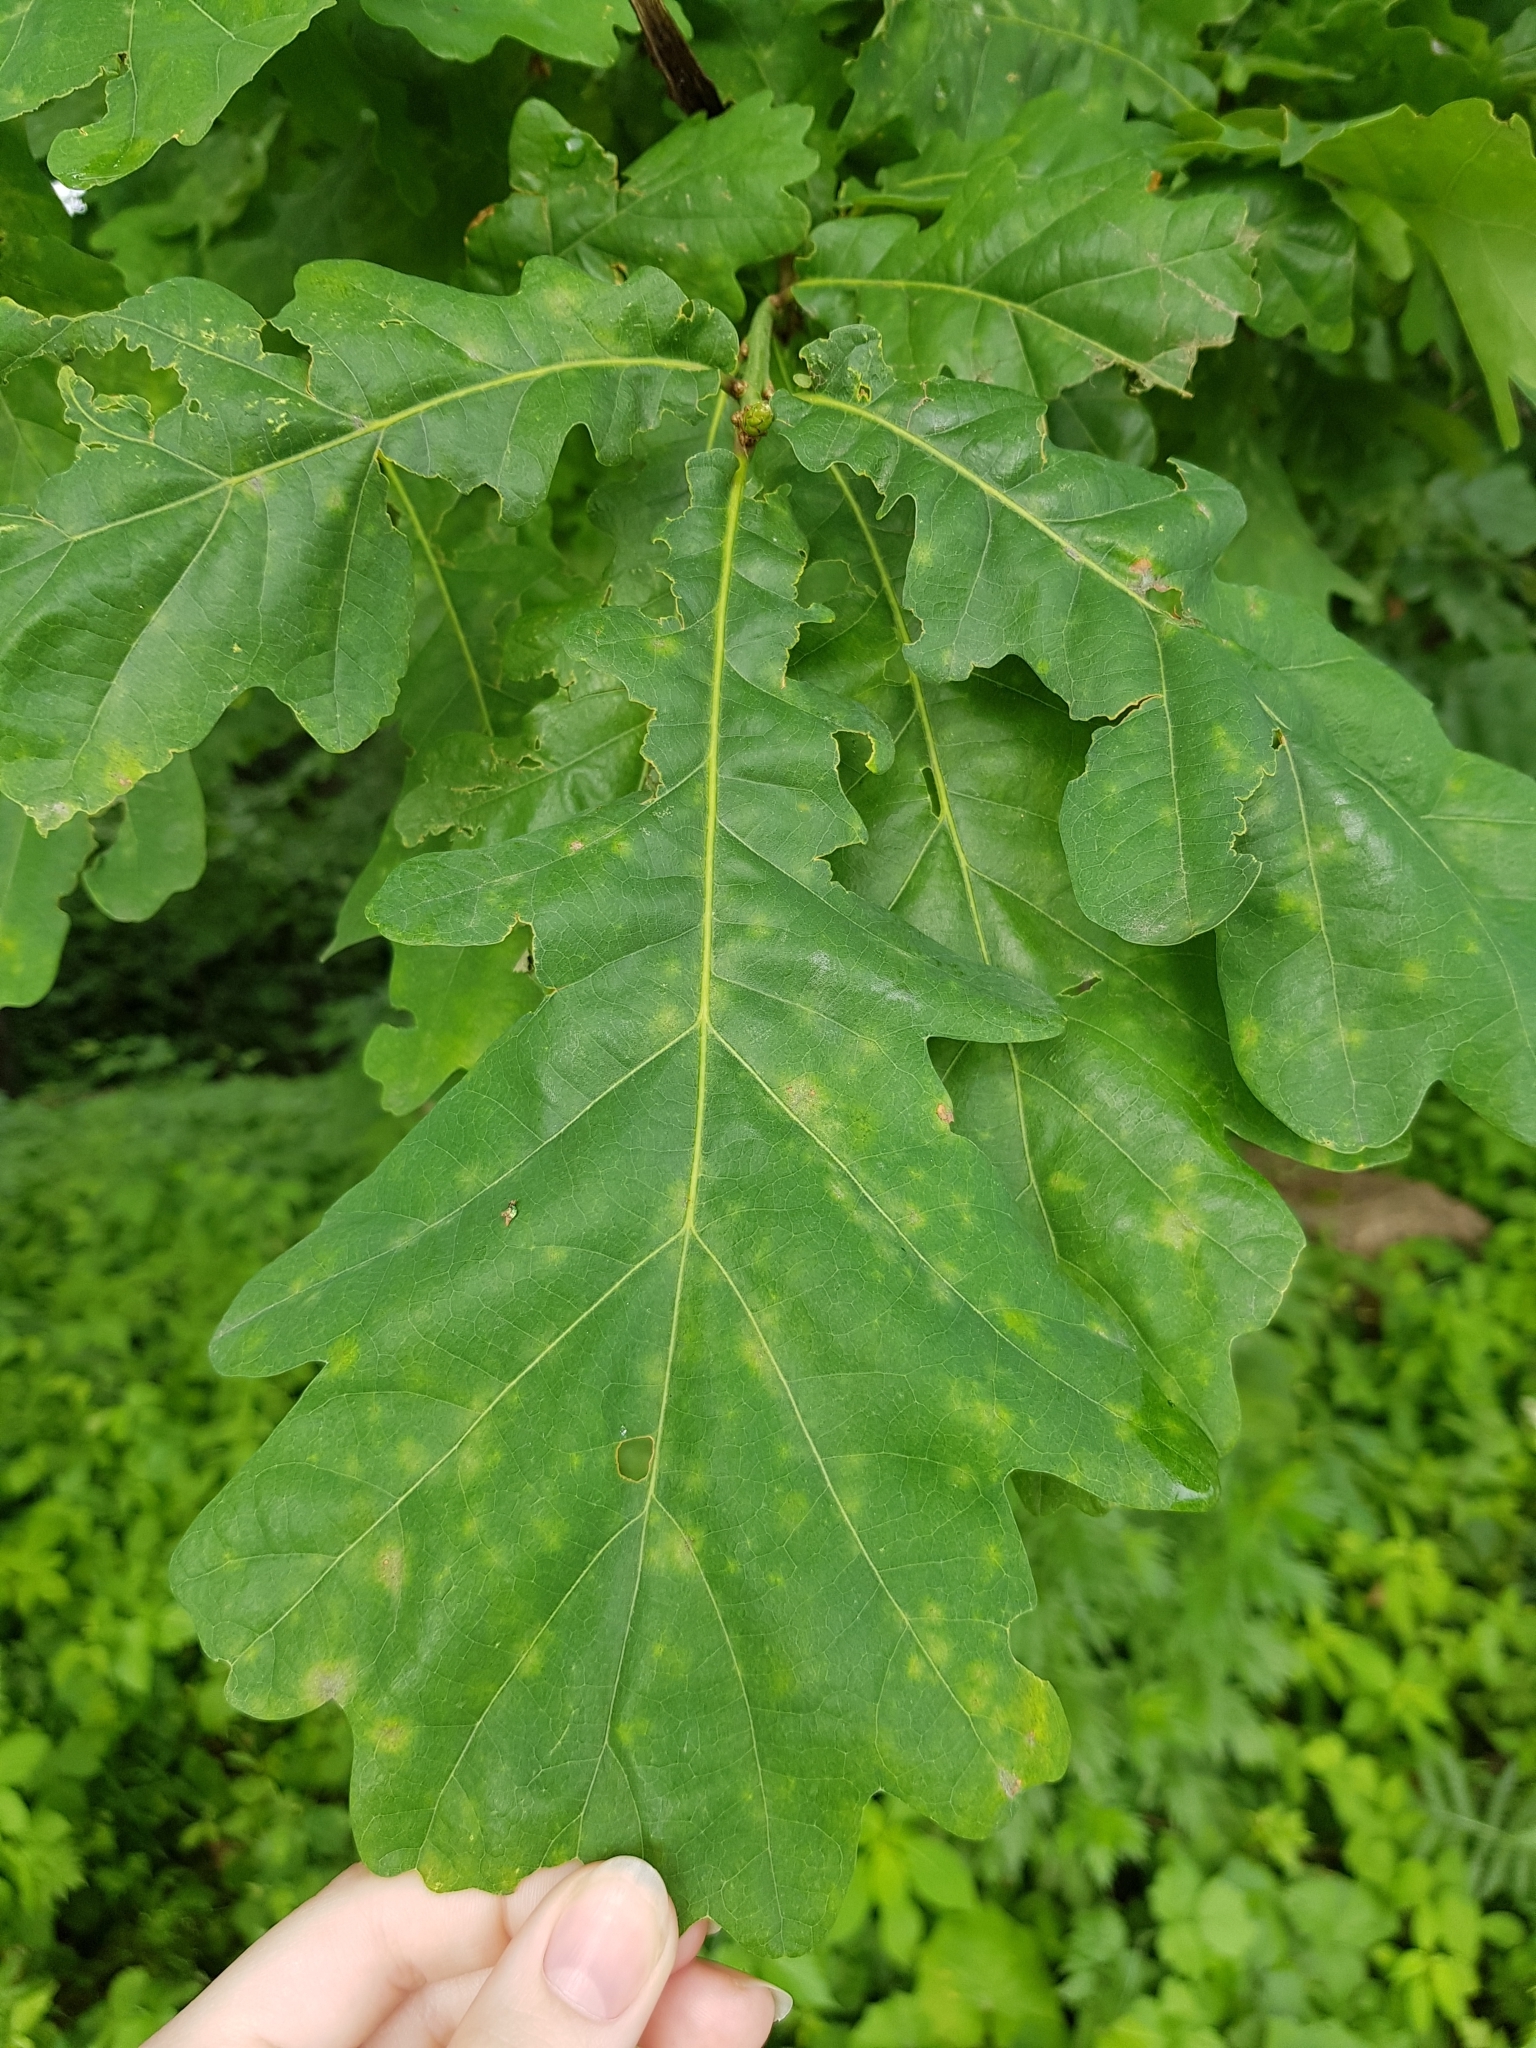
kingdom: Plantae
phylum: Tracheophyta
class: Magnoliopsida
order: Fagales
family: Fagaceae
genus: Quercus
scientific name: Quercus robur
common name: Pedunculate oak
